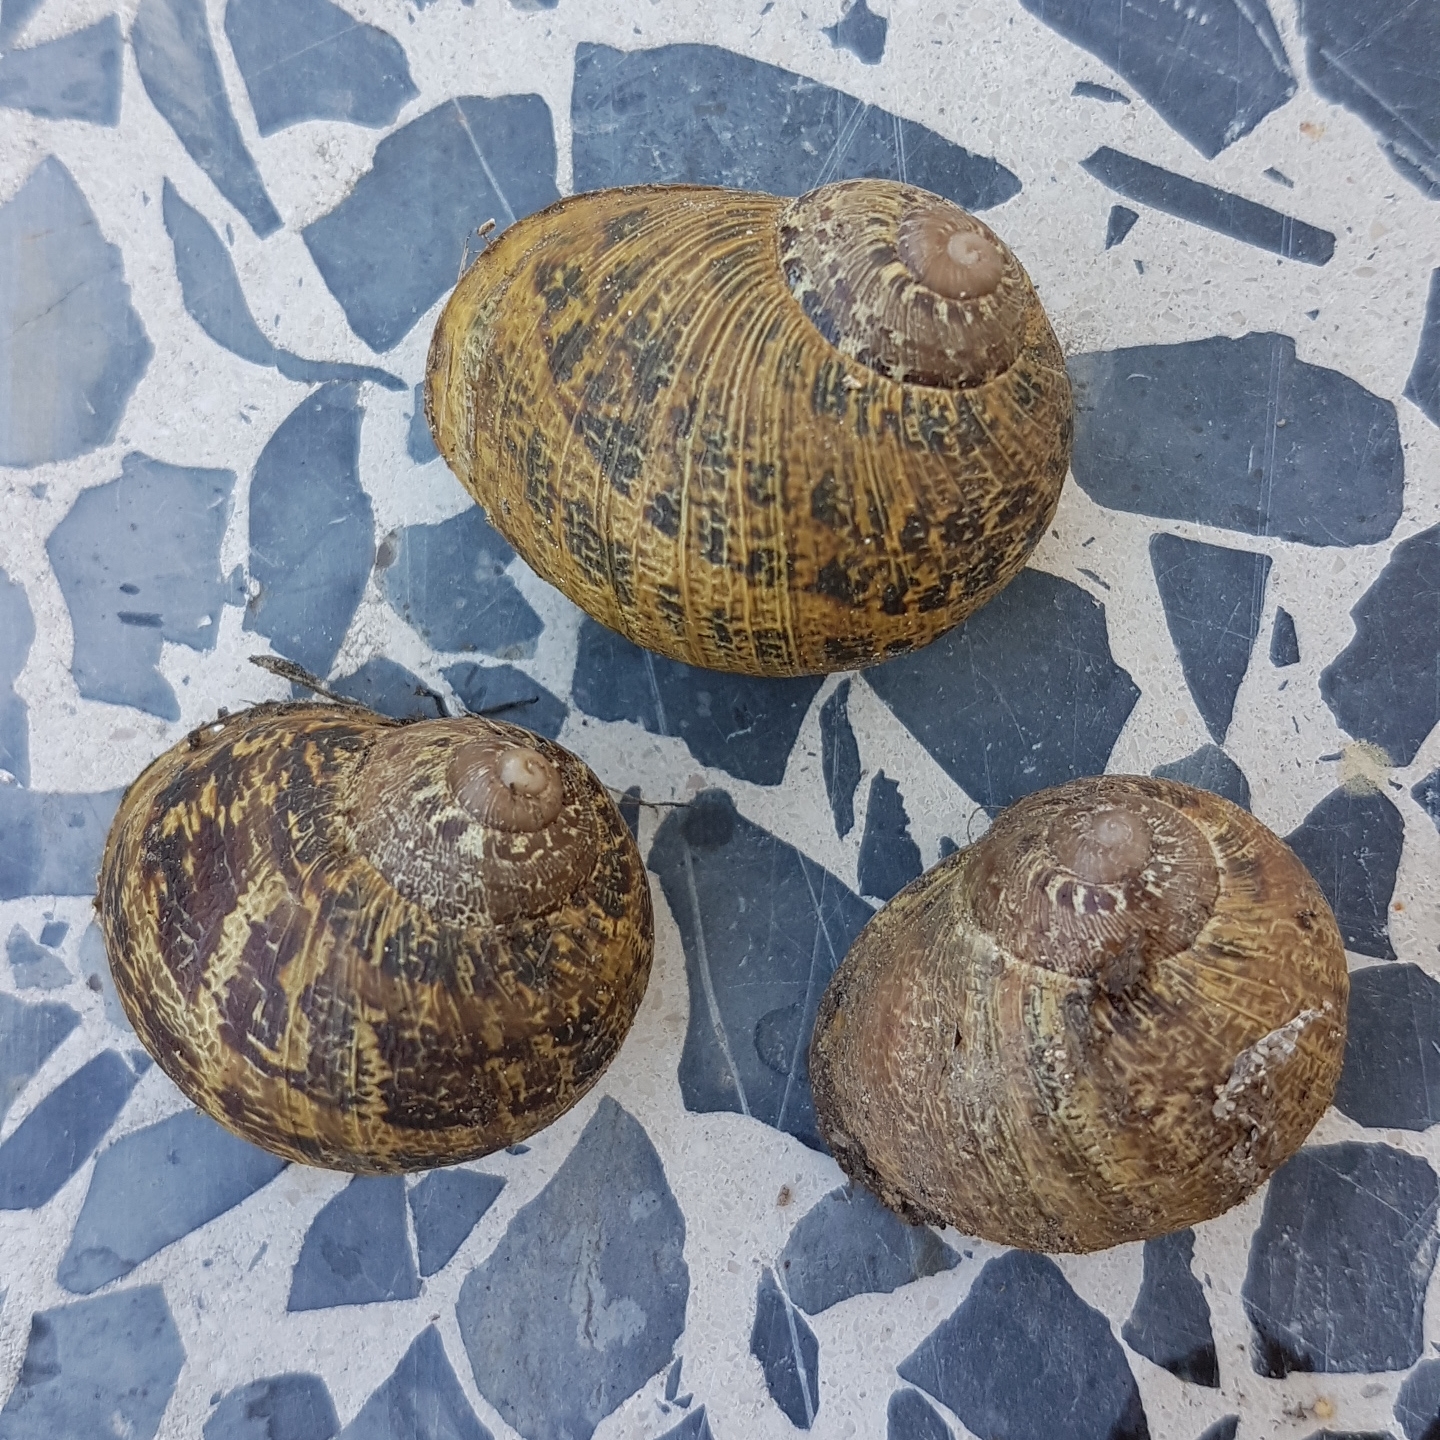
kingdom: Animalia
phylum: Mollusca
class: Gastropoda
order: Stylommatophora
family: Helicidae
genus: Cornu
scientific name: Cornu aspersum
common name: Brown garden snail
